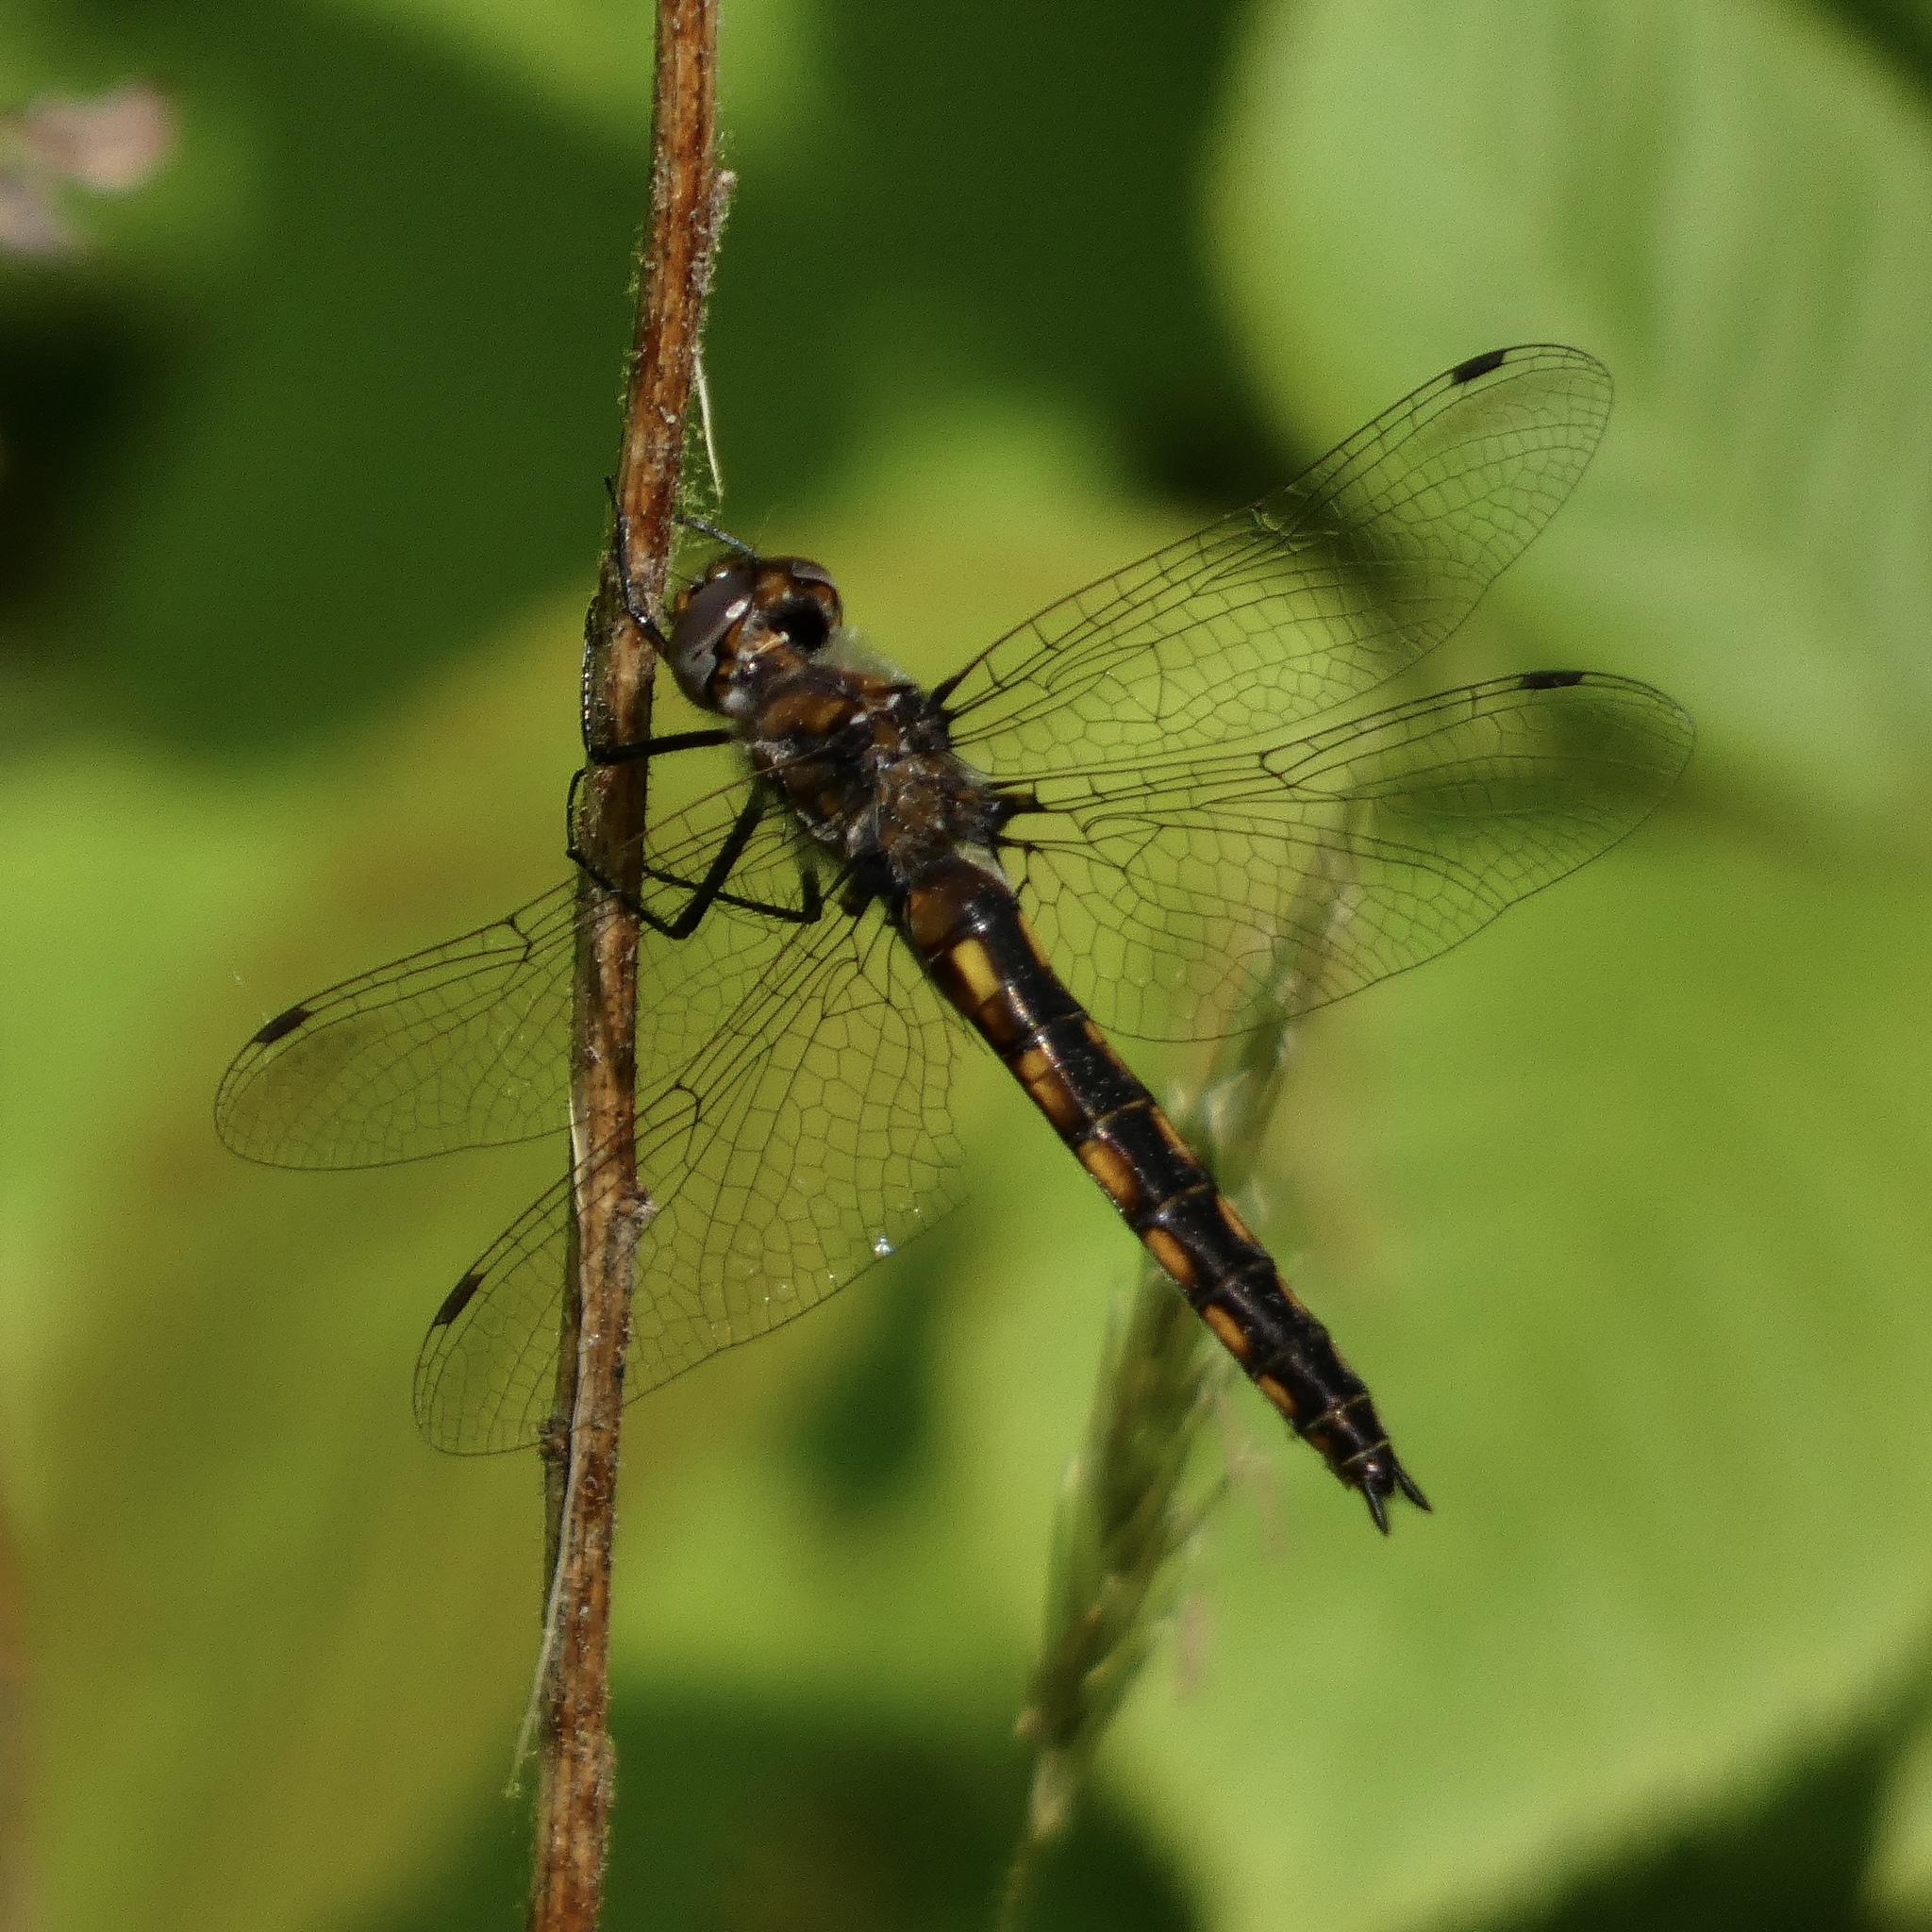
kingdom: Animalia
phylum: Arthropoda
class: Insecta
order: Odonata
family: Corduliidae
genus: Epitheca
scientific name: Epitheca cynosura
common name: Common baskettail
